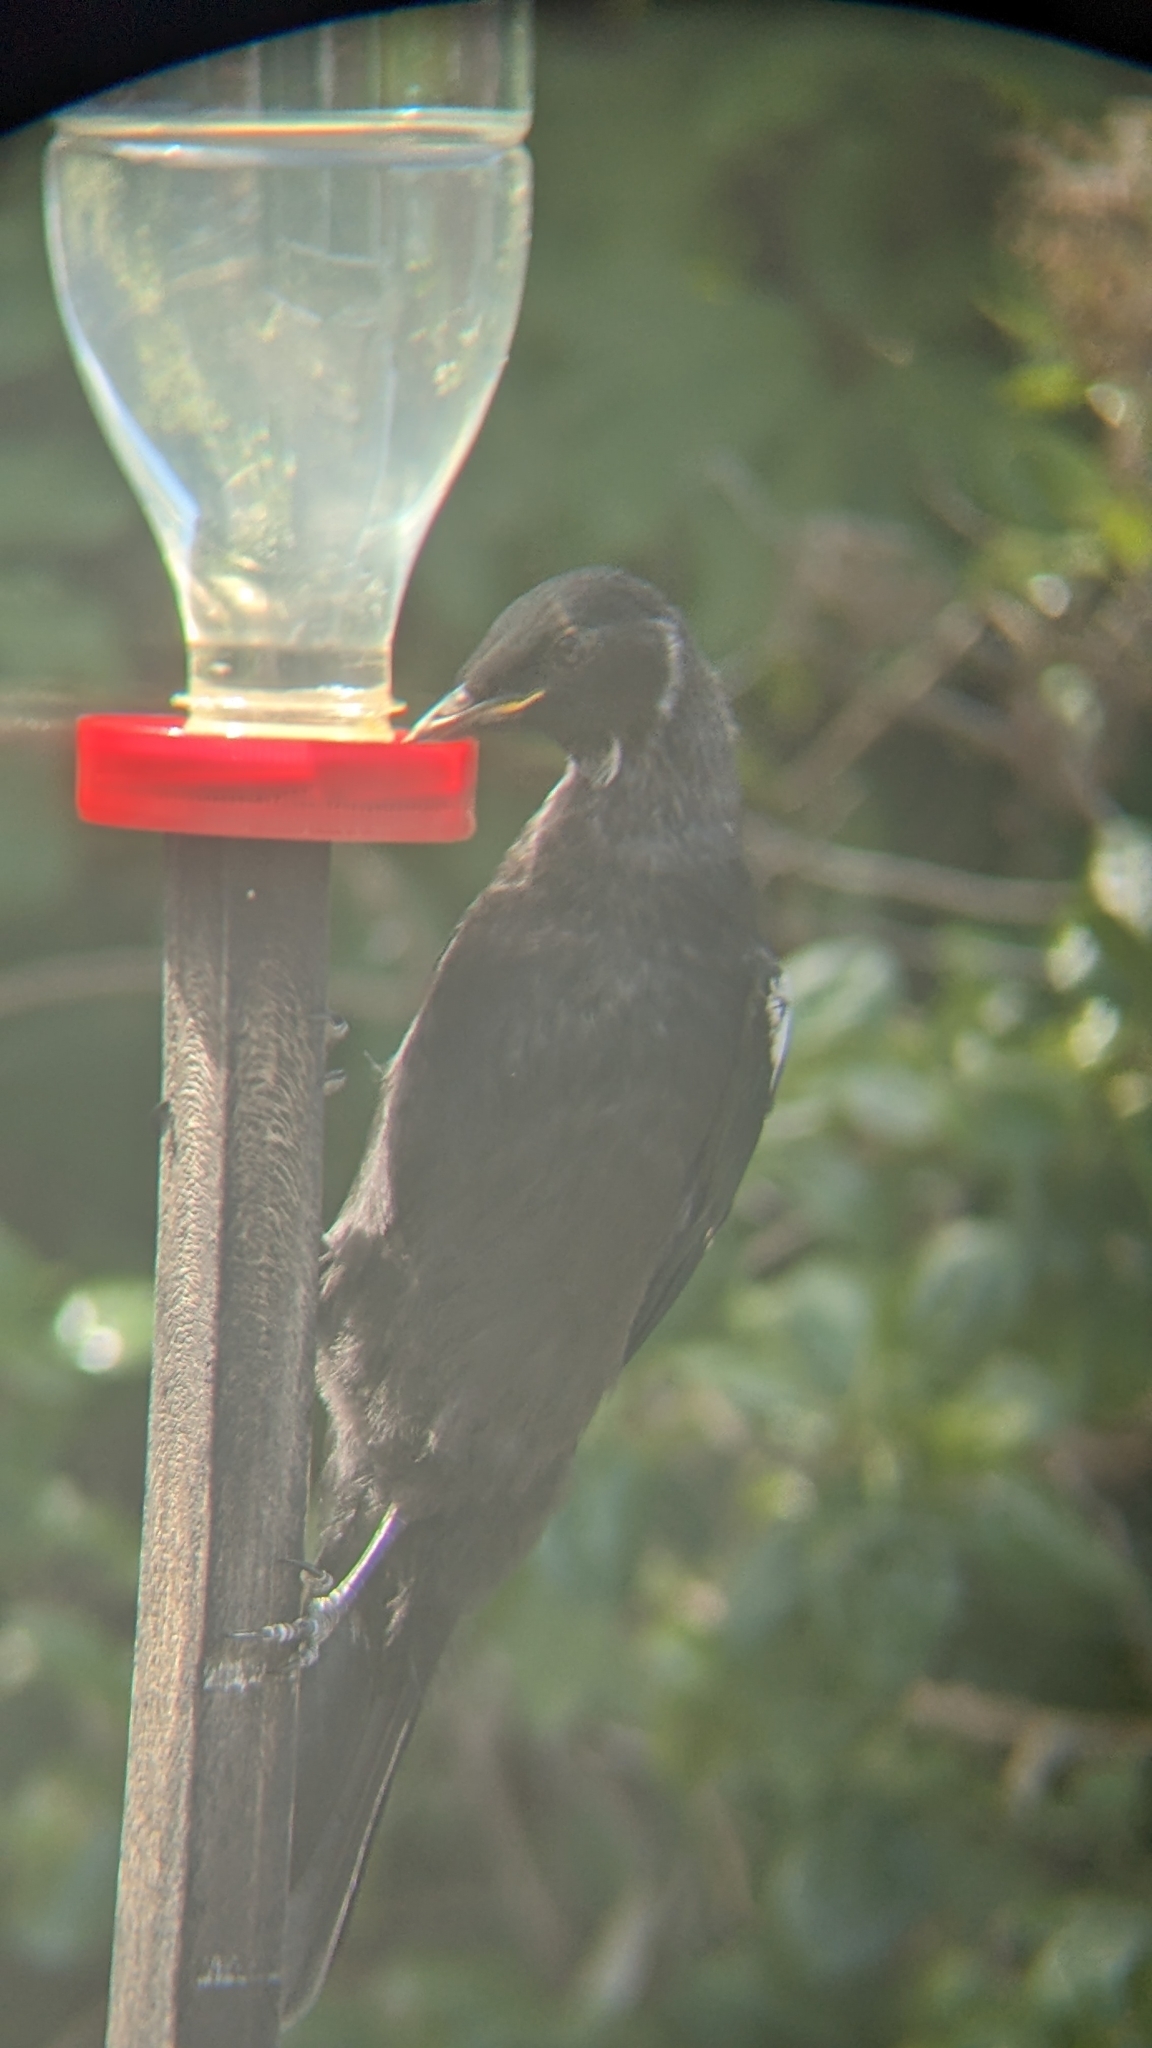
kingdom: Animalia
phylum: Chordata
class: Aves
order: Passeriformes
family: Meliphagidae
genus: Prosthemadera
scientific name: Prosthemadera novaeseelandiae
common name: Tui
